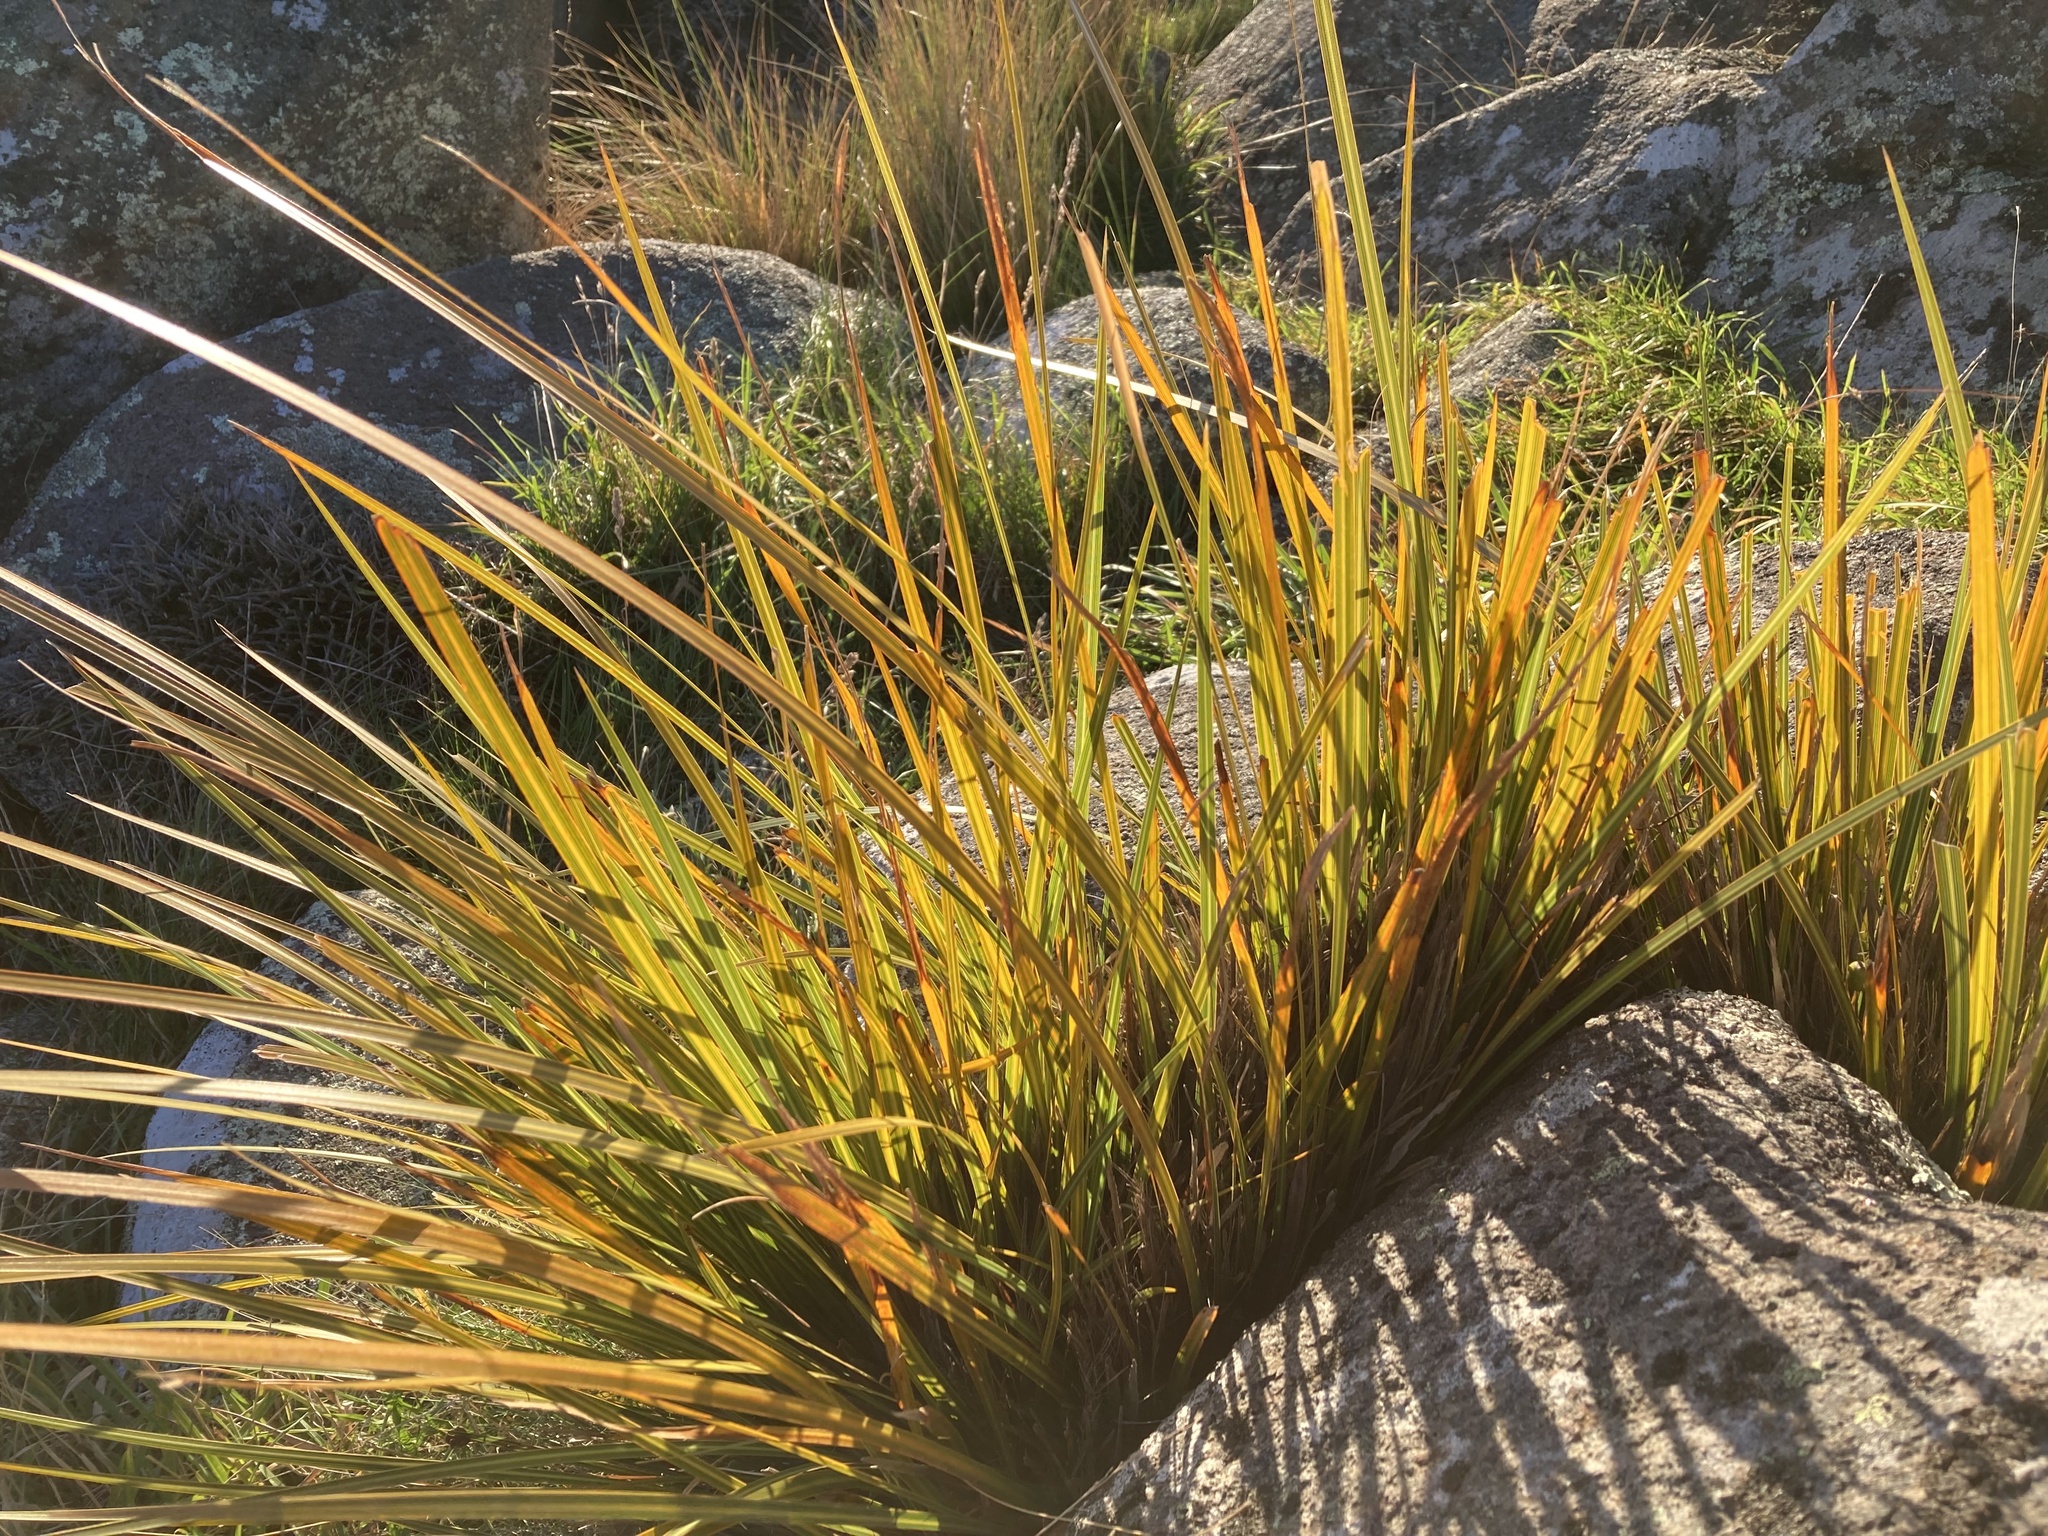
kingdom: Plantae
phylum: Tracheophyta
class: Liliopsida
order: Asparagales
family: Iridaceae
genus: Libertia
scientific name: Libertia ixioides
